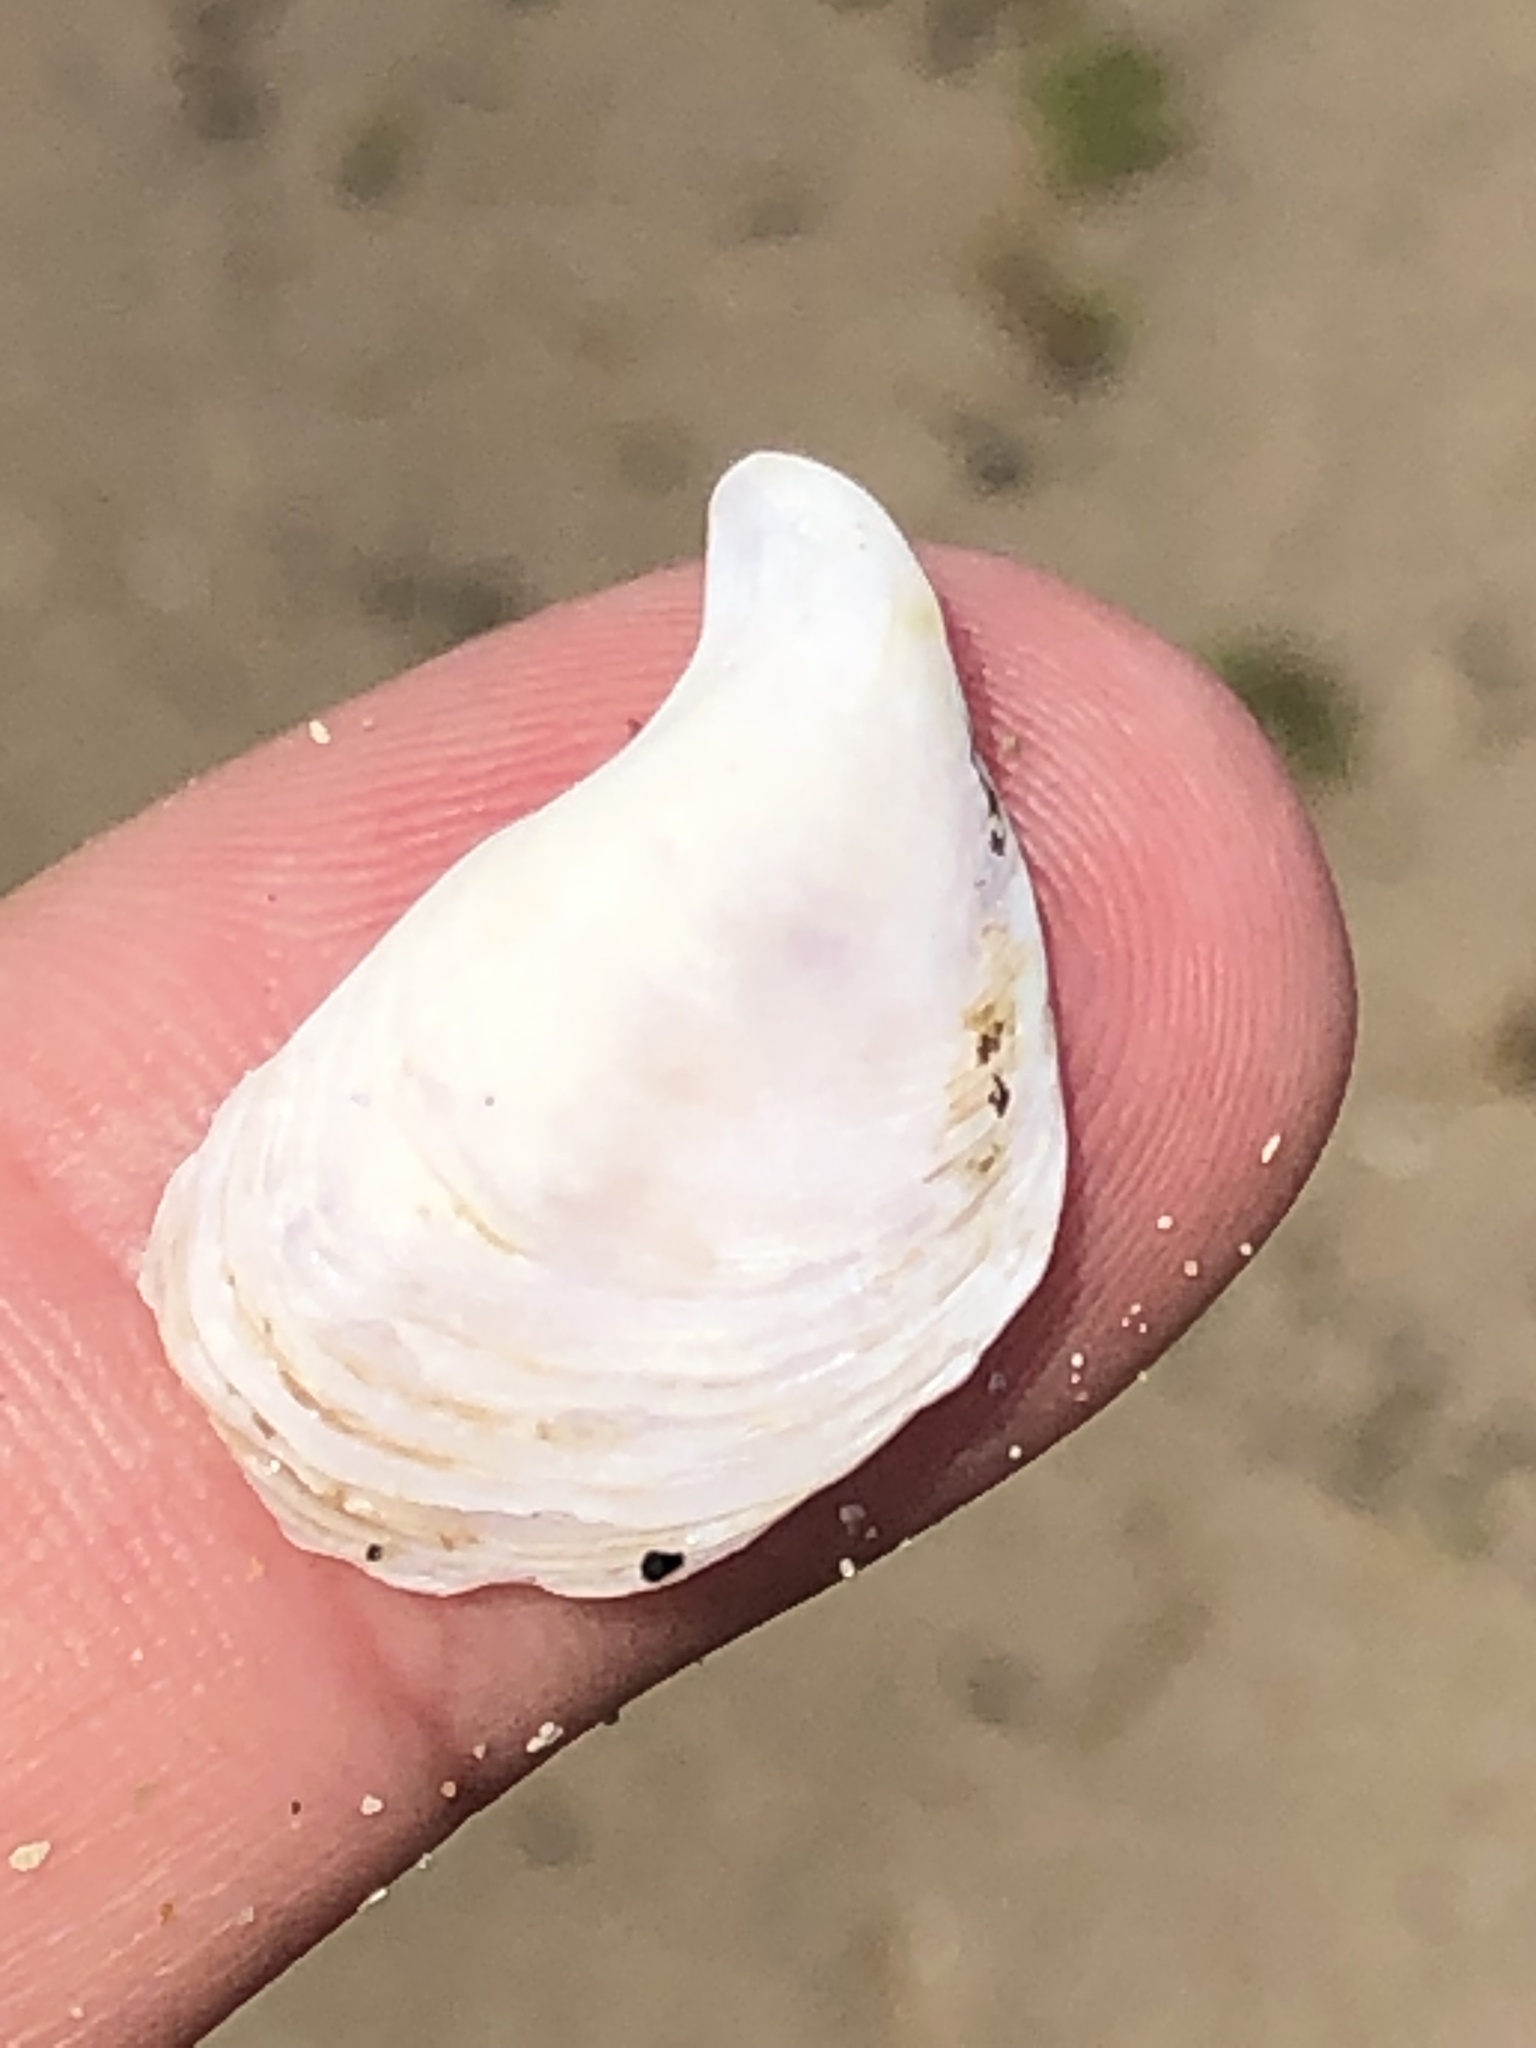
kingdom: Animalia
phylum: Mollusca
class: Bivalvia
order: Myida
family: Dreissenidae
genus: Dreissena
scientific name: Dreissena bugensis
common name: Quagga mussel
